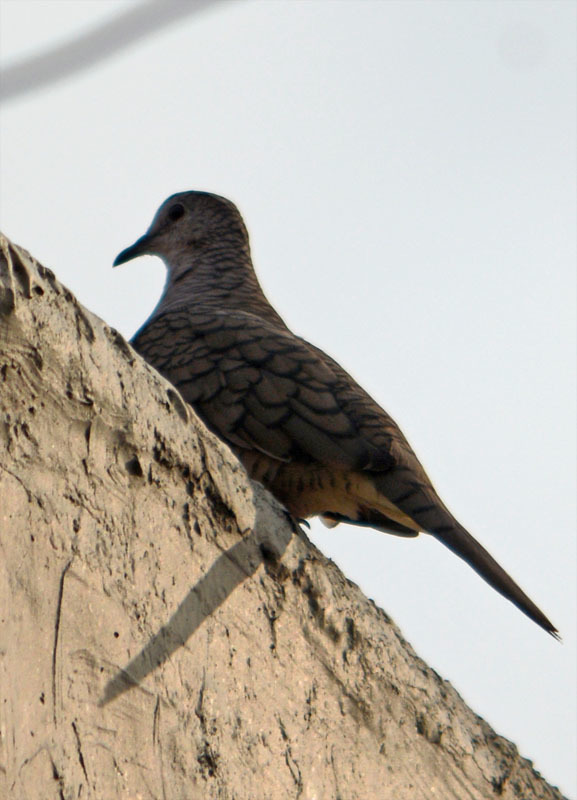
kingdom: Animalia
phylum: Chordata
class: Aves
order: Columbiformes
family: Columbidae
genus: Columbina
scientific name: Columbina inca
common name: Inca dove
